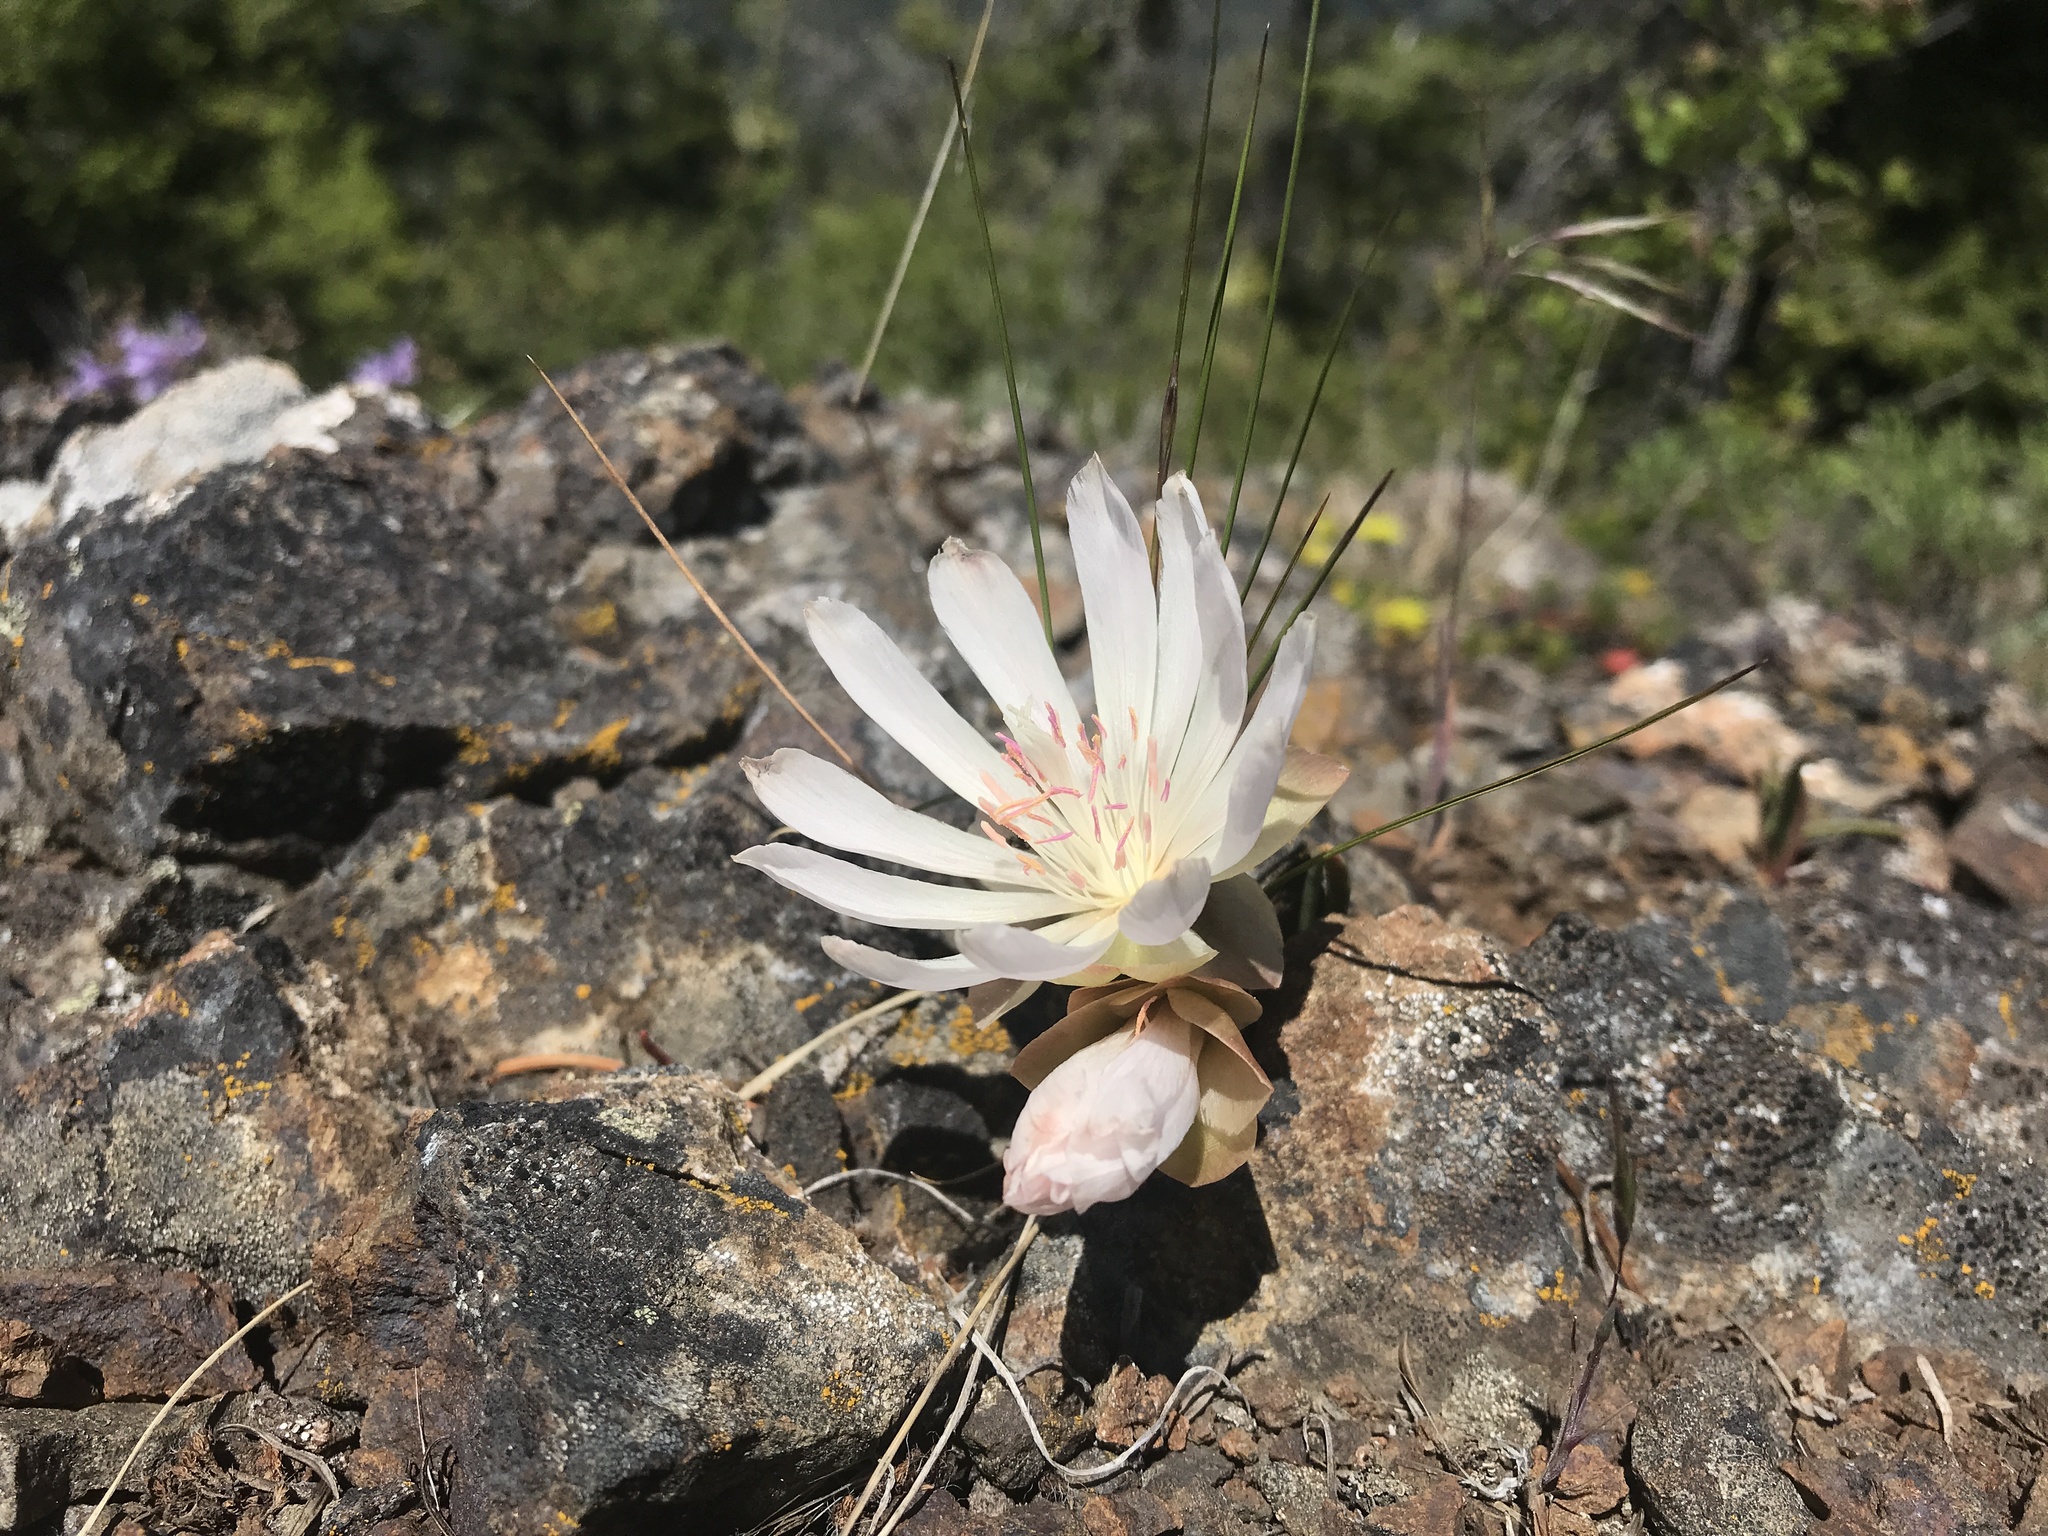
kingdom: Plantae
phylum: Tracheophyta
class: Magnoliopsida
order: Caryophyllales
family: Montiaceae
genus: Lewisia
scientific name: Lewisia rediviva
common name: Bitter-root
